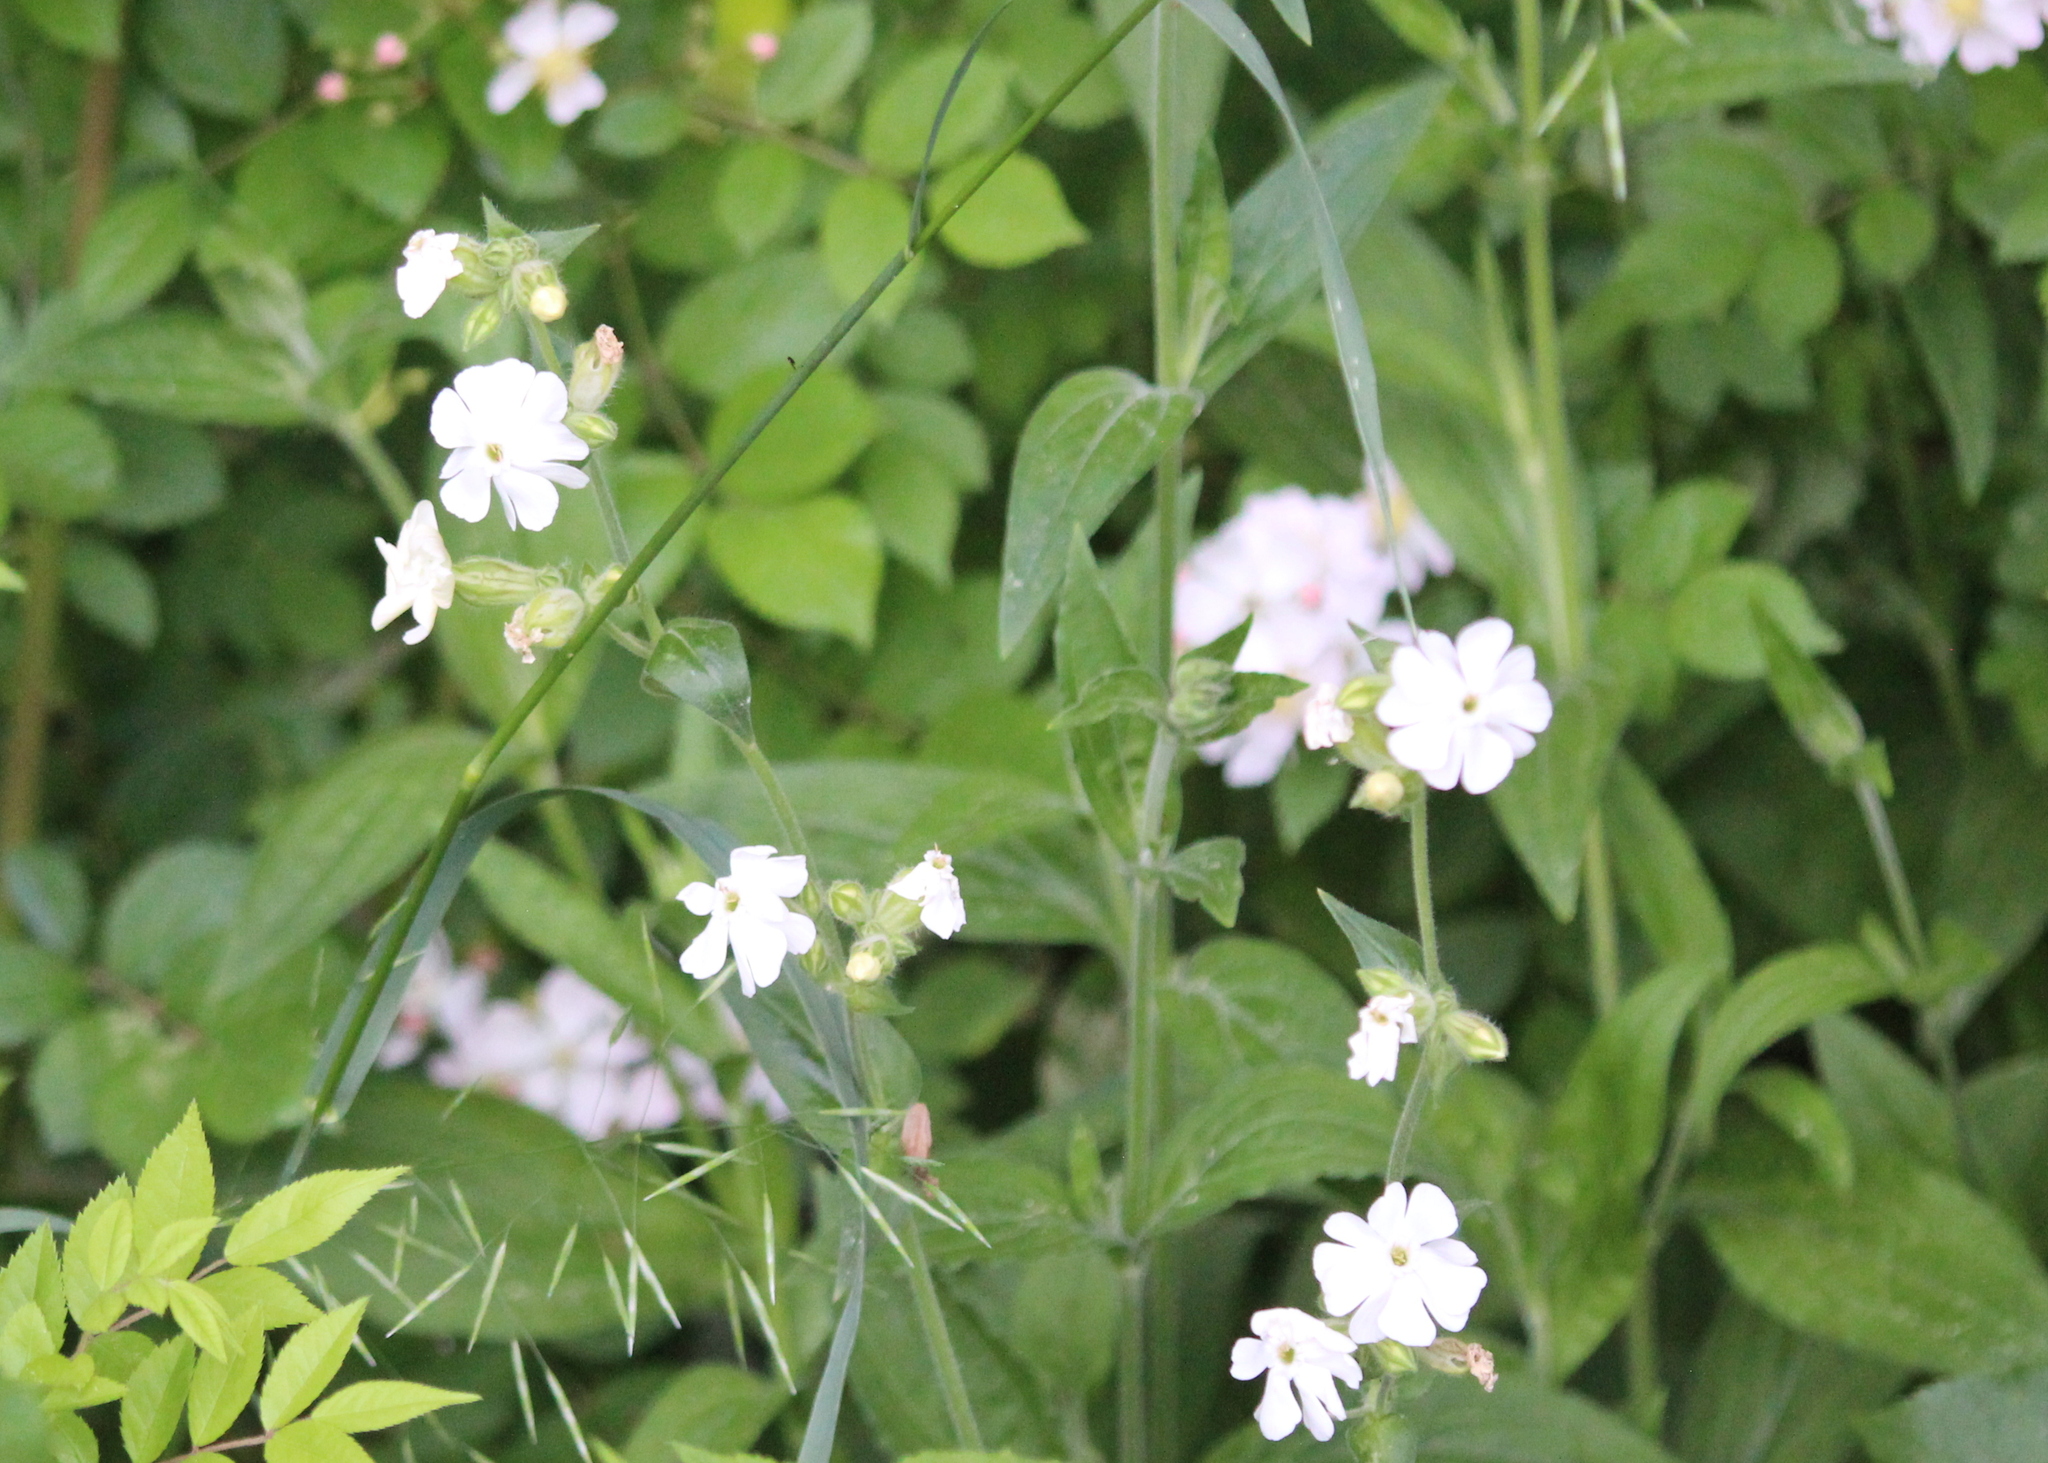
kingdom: Plantae
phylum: Tracheophyta
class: Magnoliopsida
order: Caryophyllales
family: Caryophyllaceae
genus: Silene
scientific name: Silene latifolia
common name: White campion
